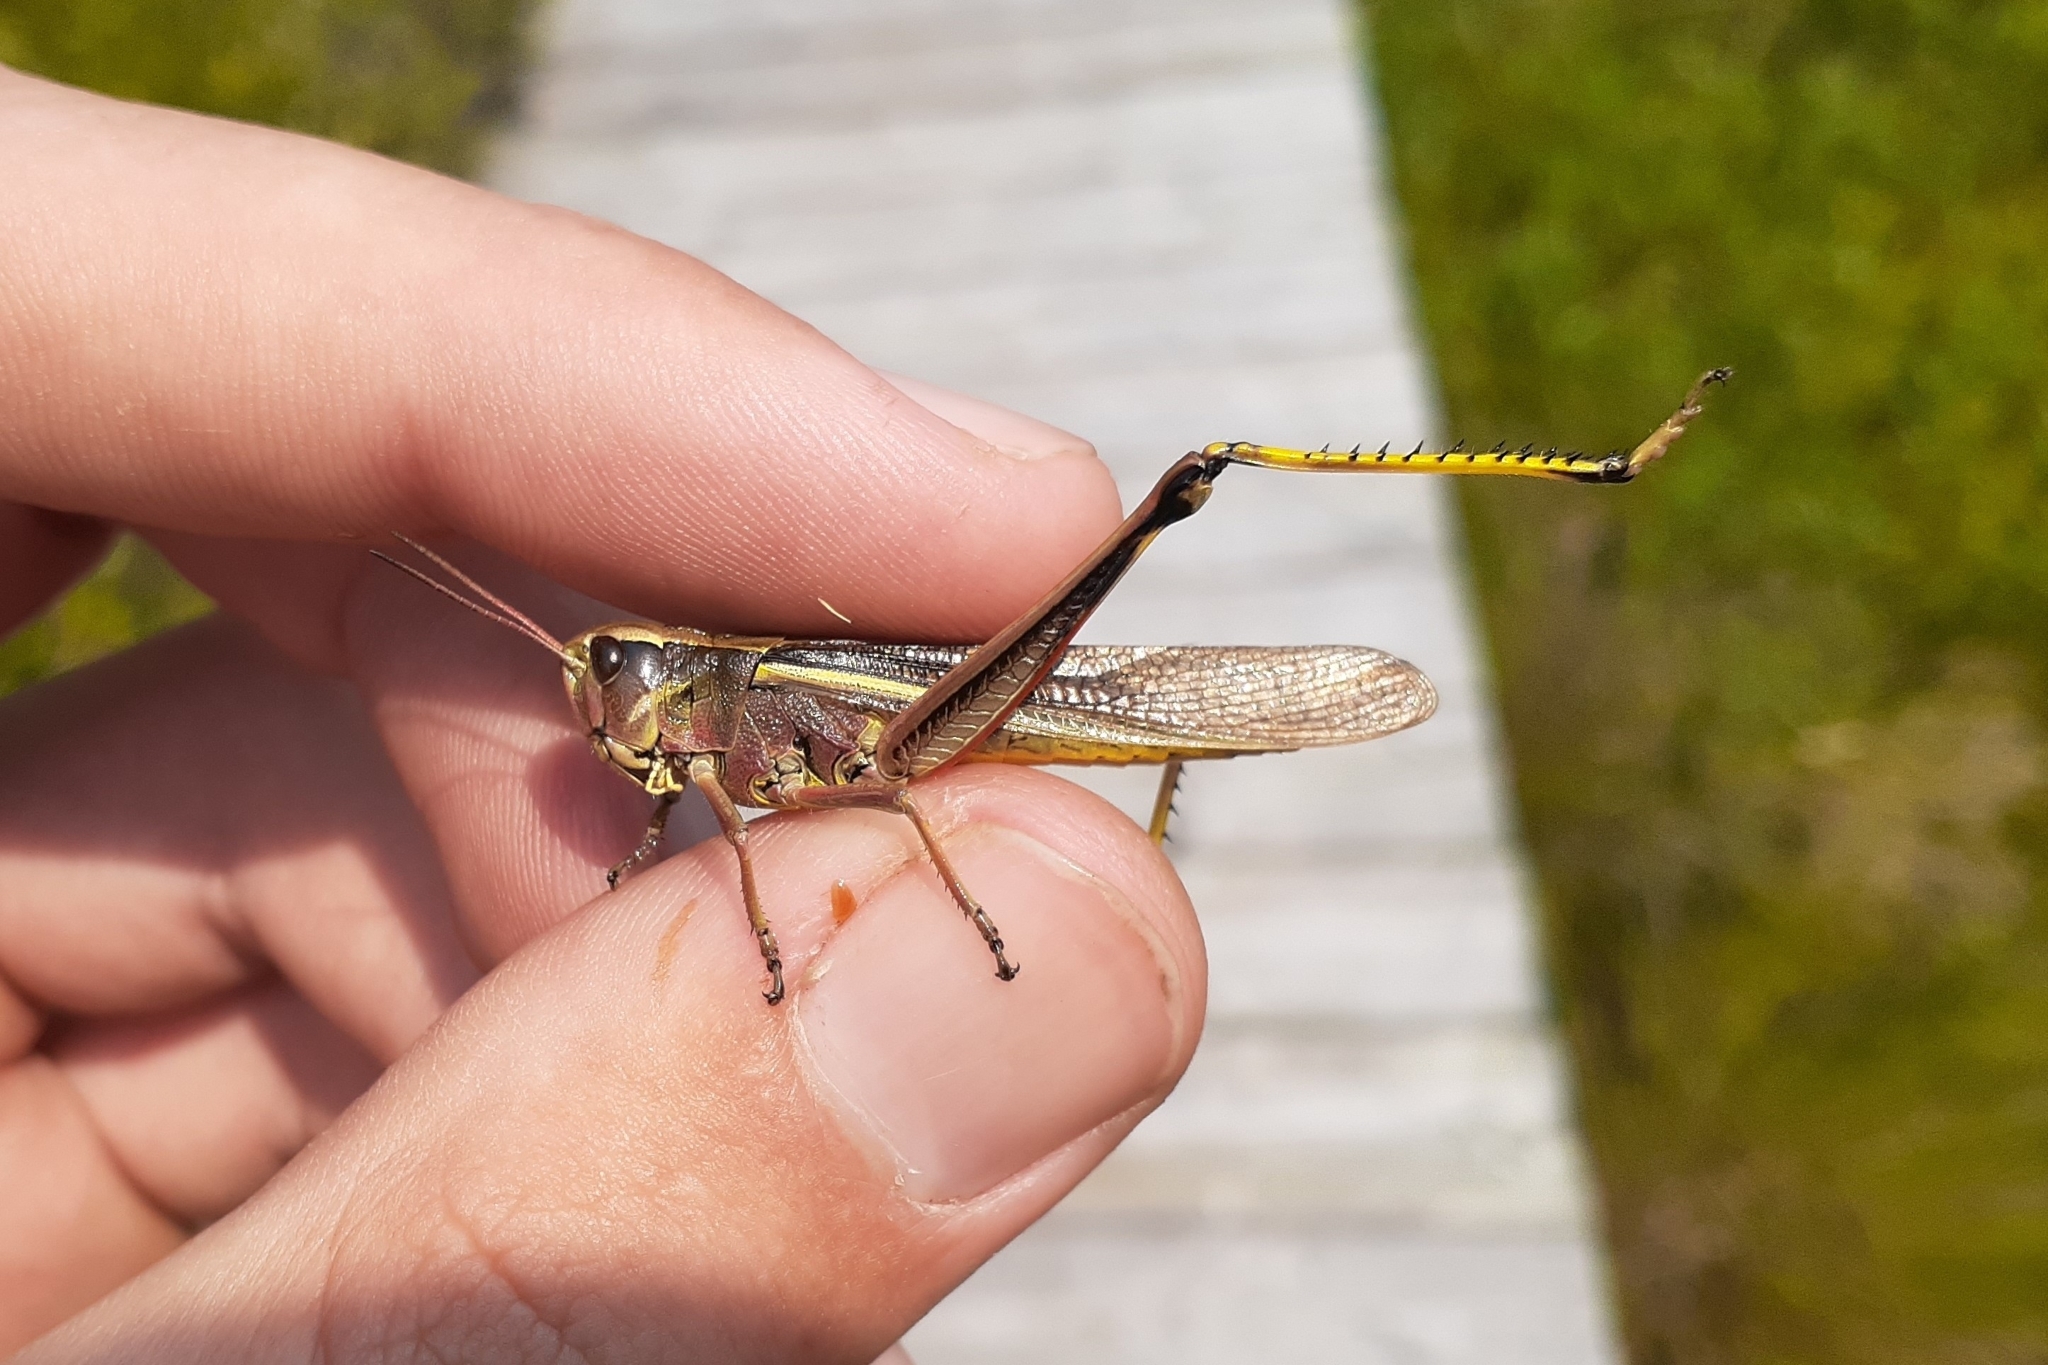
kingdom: Animalia
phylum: Arthropoda
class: Insecta
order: Orthoptera
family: Acrididae
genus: Stethophyma
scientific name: Stethophyma lineatum
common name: Striped sedge locust
